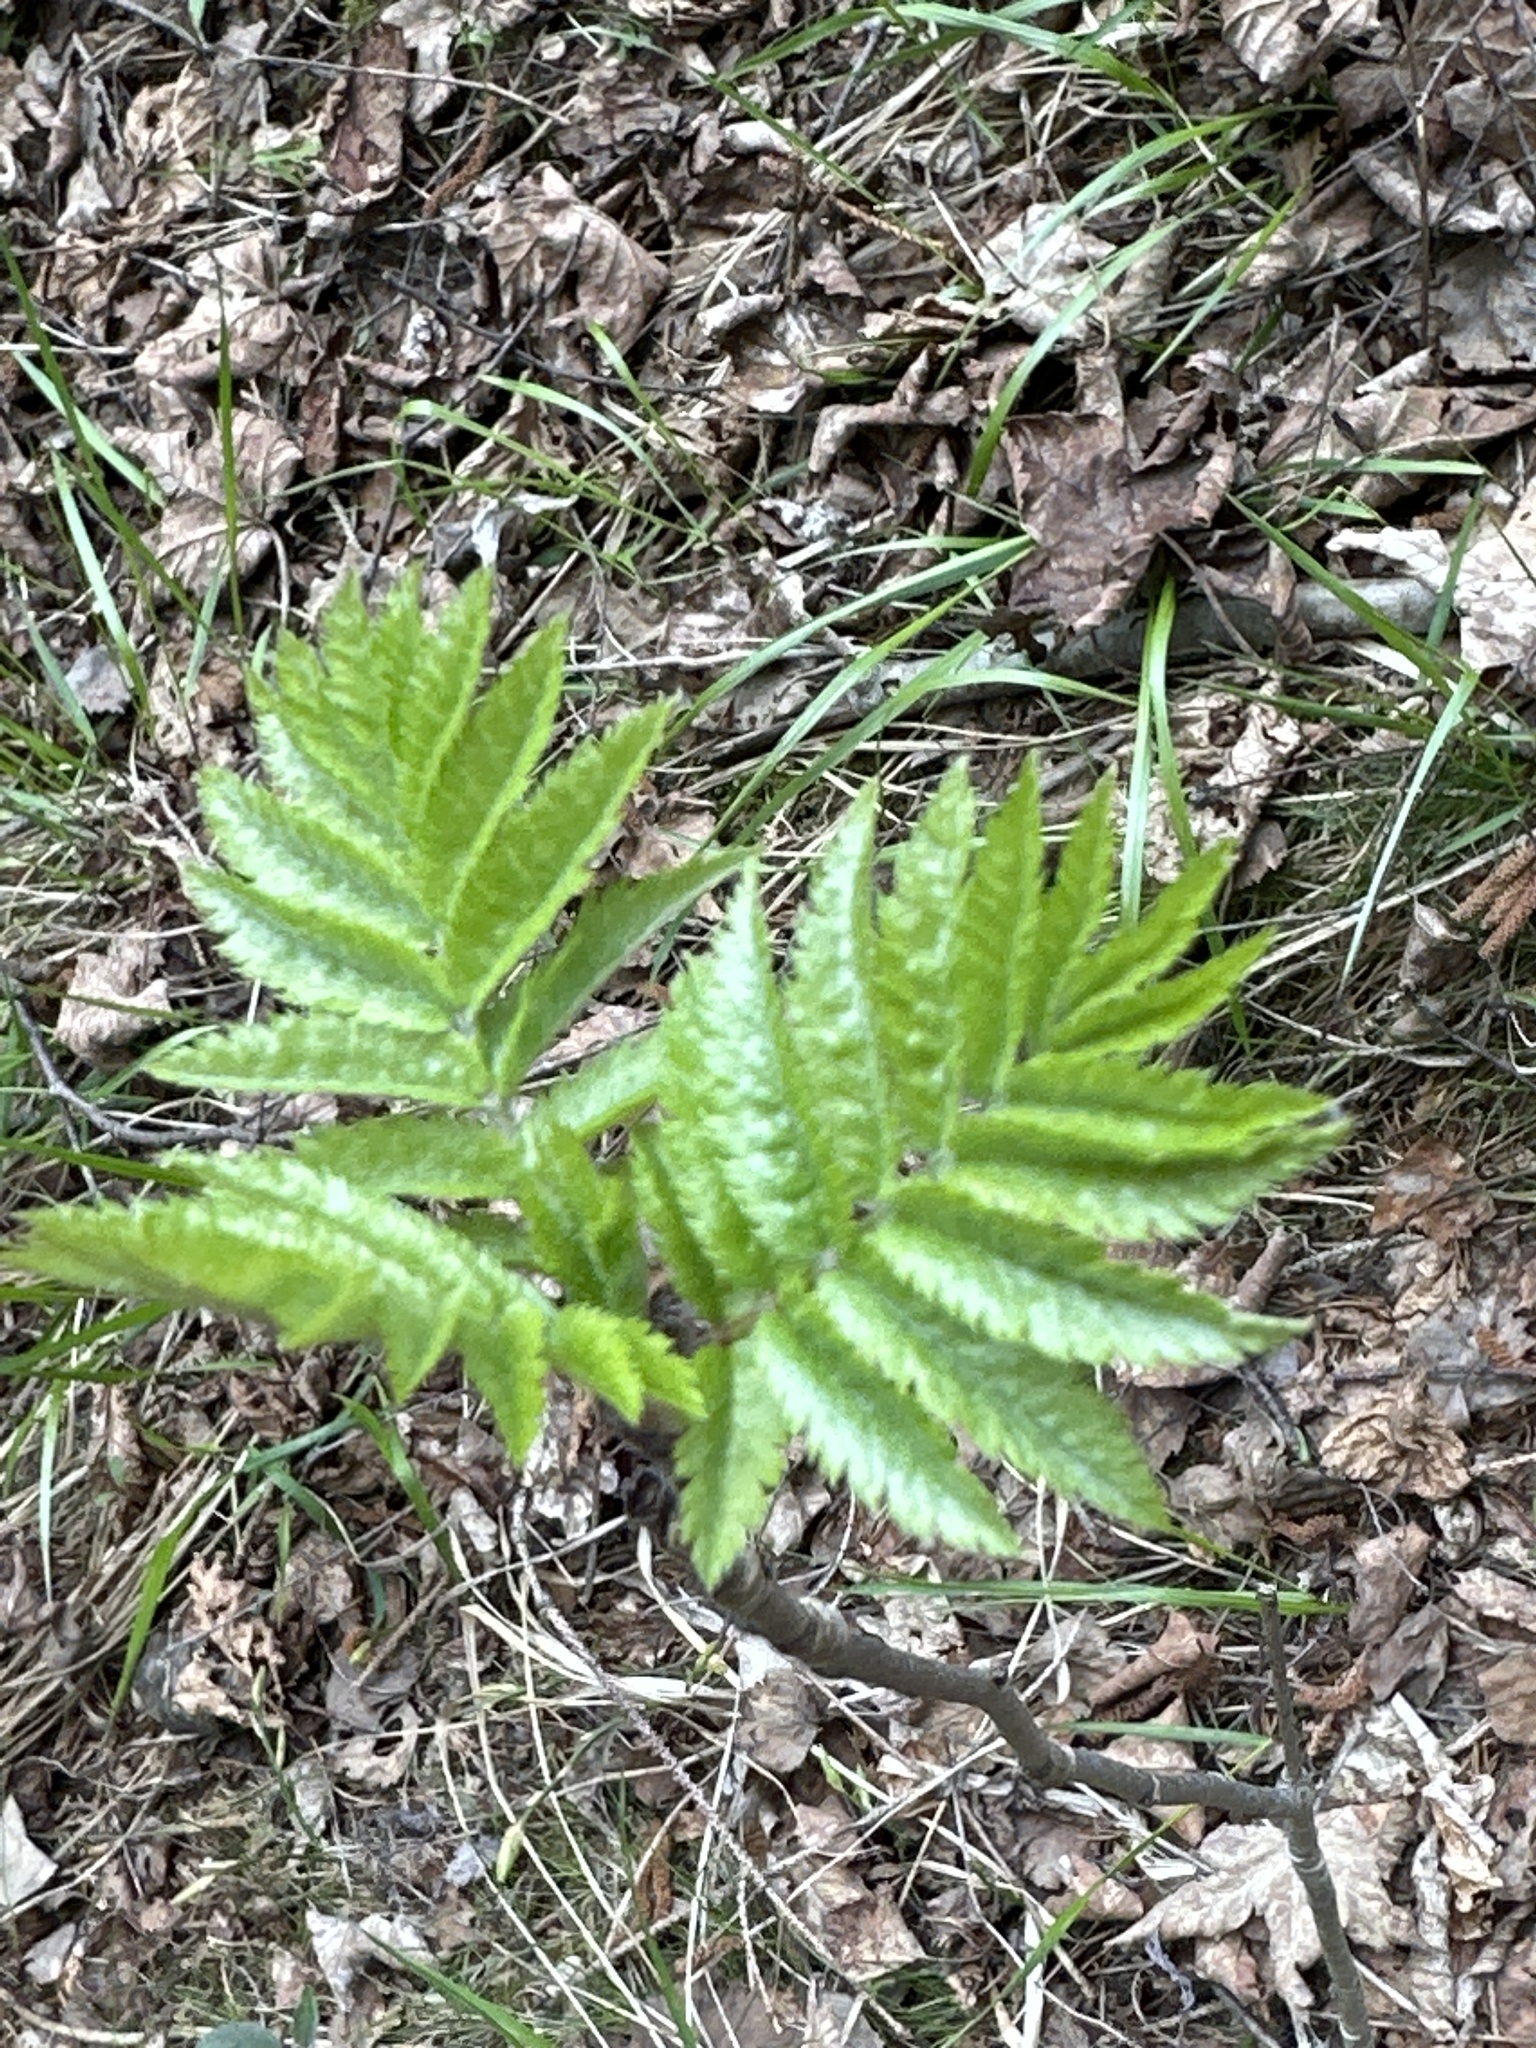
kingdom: Plantae
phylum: Tracheophyta
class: Magnoliopsida
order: Rosales
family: Rosaceae
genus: Sorbus
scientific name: Sorbus aucuparia
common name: Rowan
